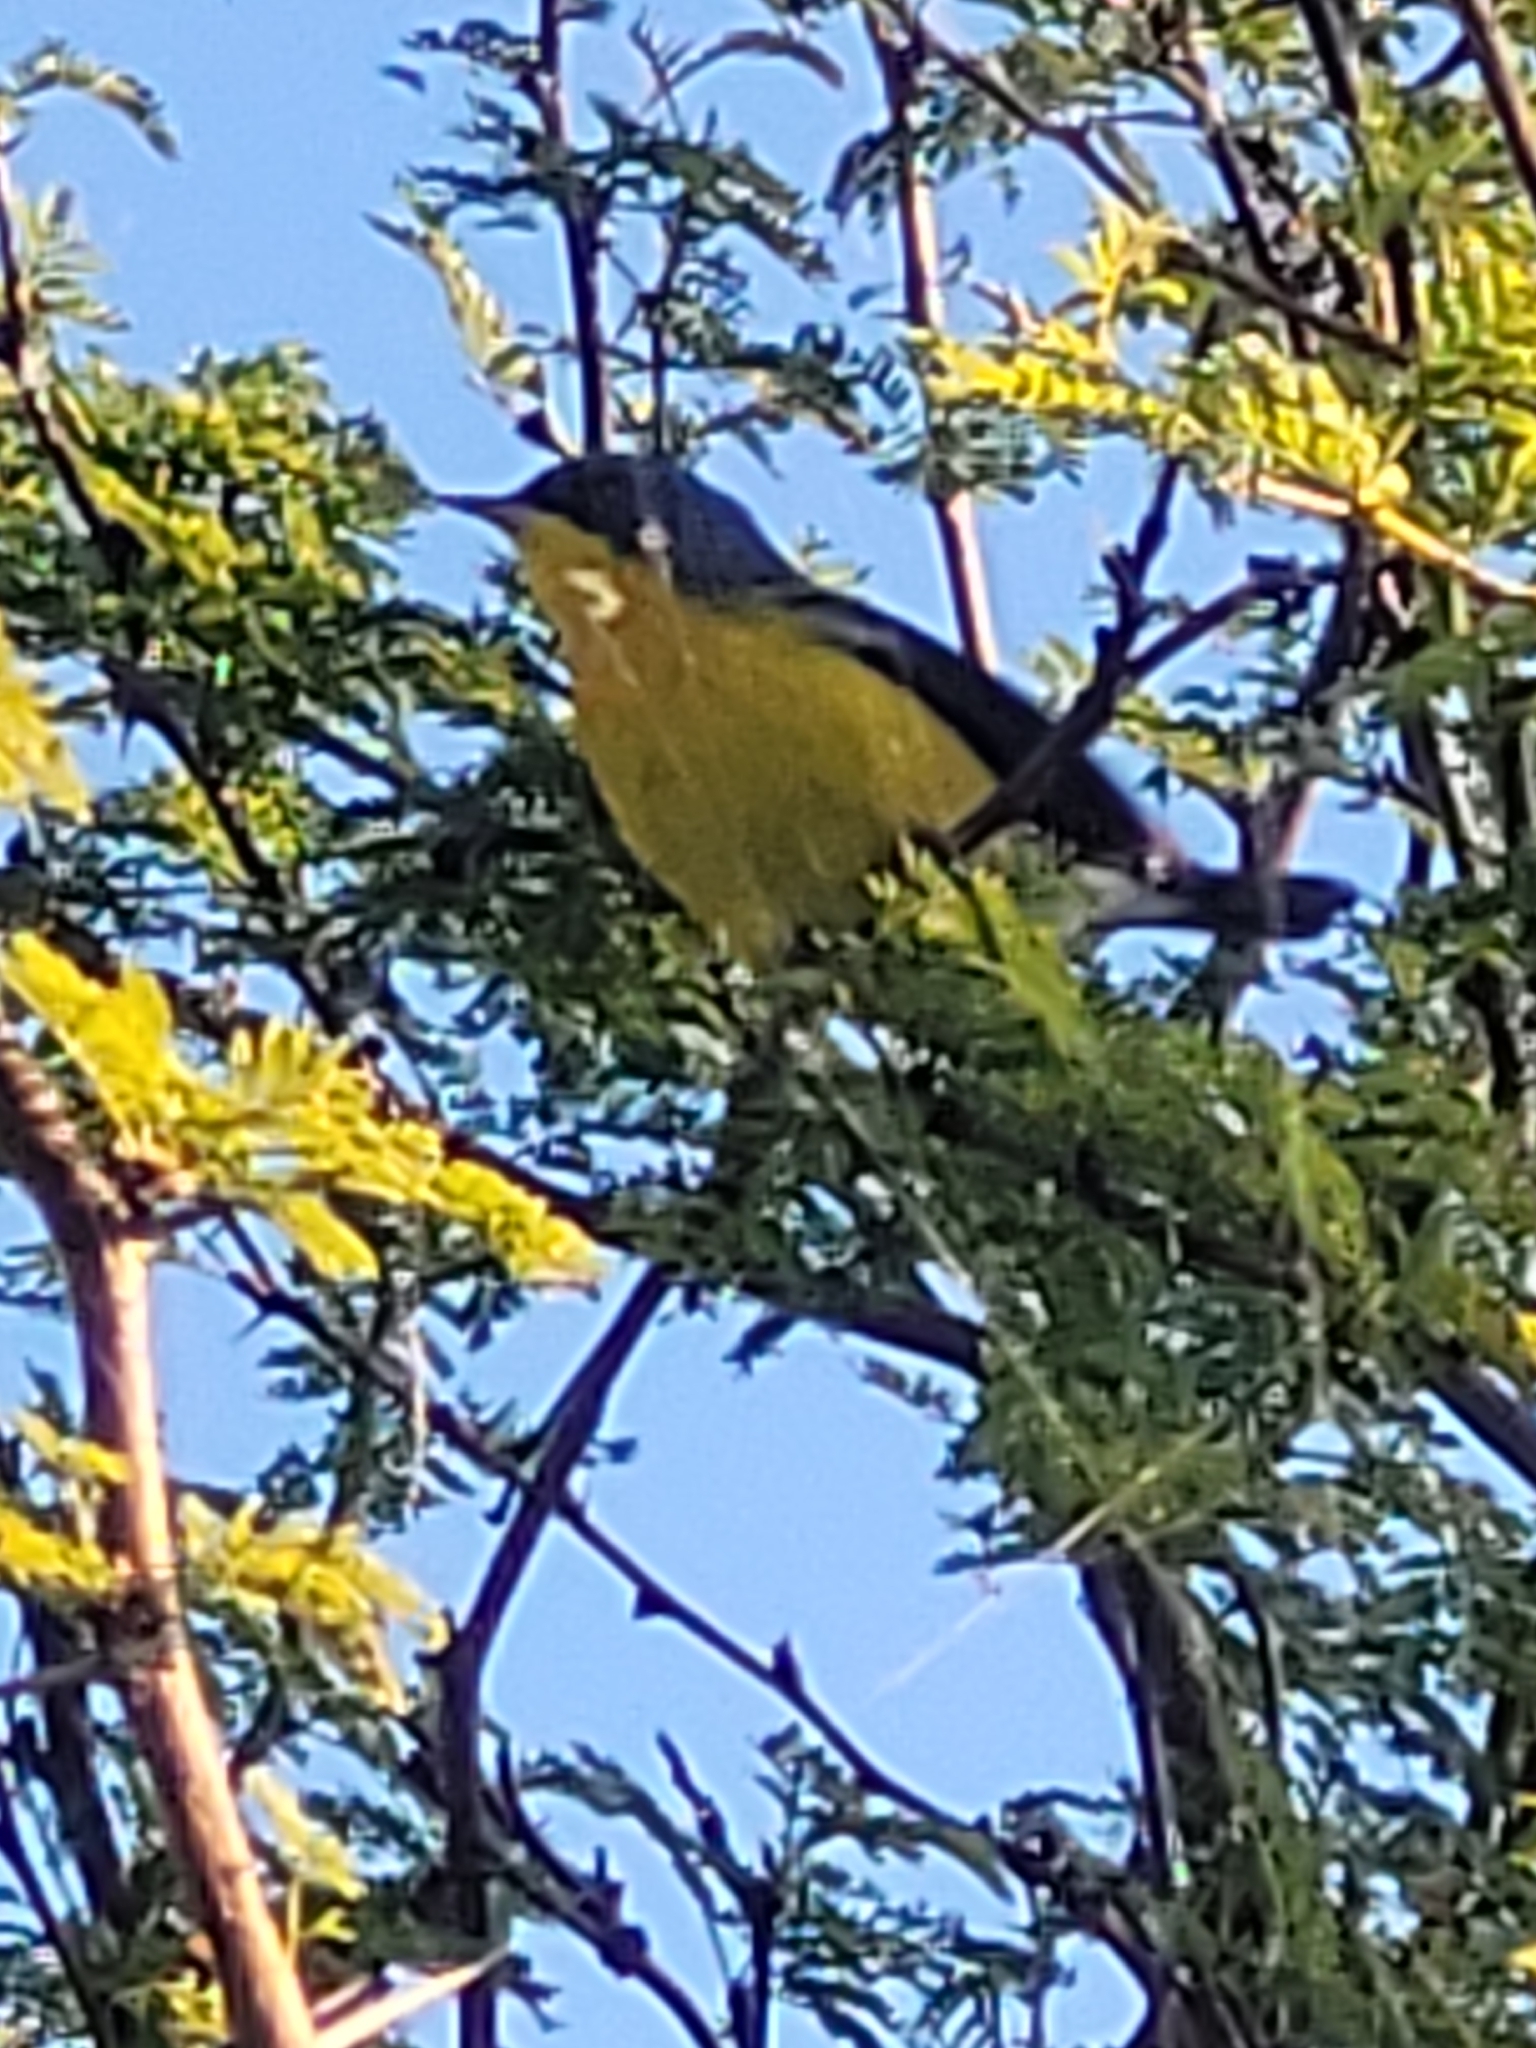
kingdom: Animalia
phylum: Chordata
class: Aves
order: Passeriformes
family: Parulidae
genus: Setophaga
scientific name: Setophaga pitiayumi
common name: Tropical parula
